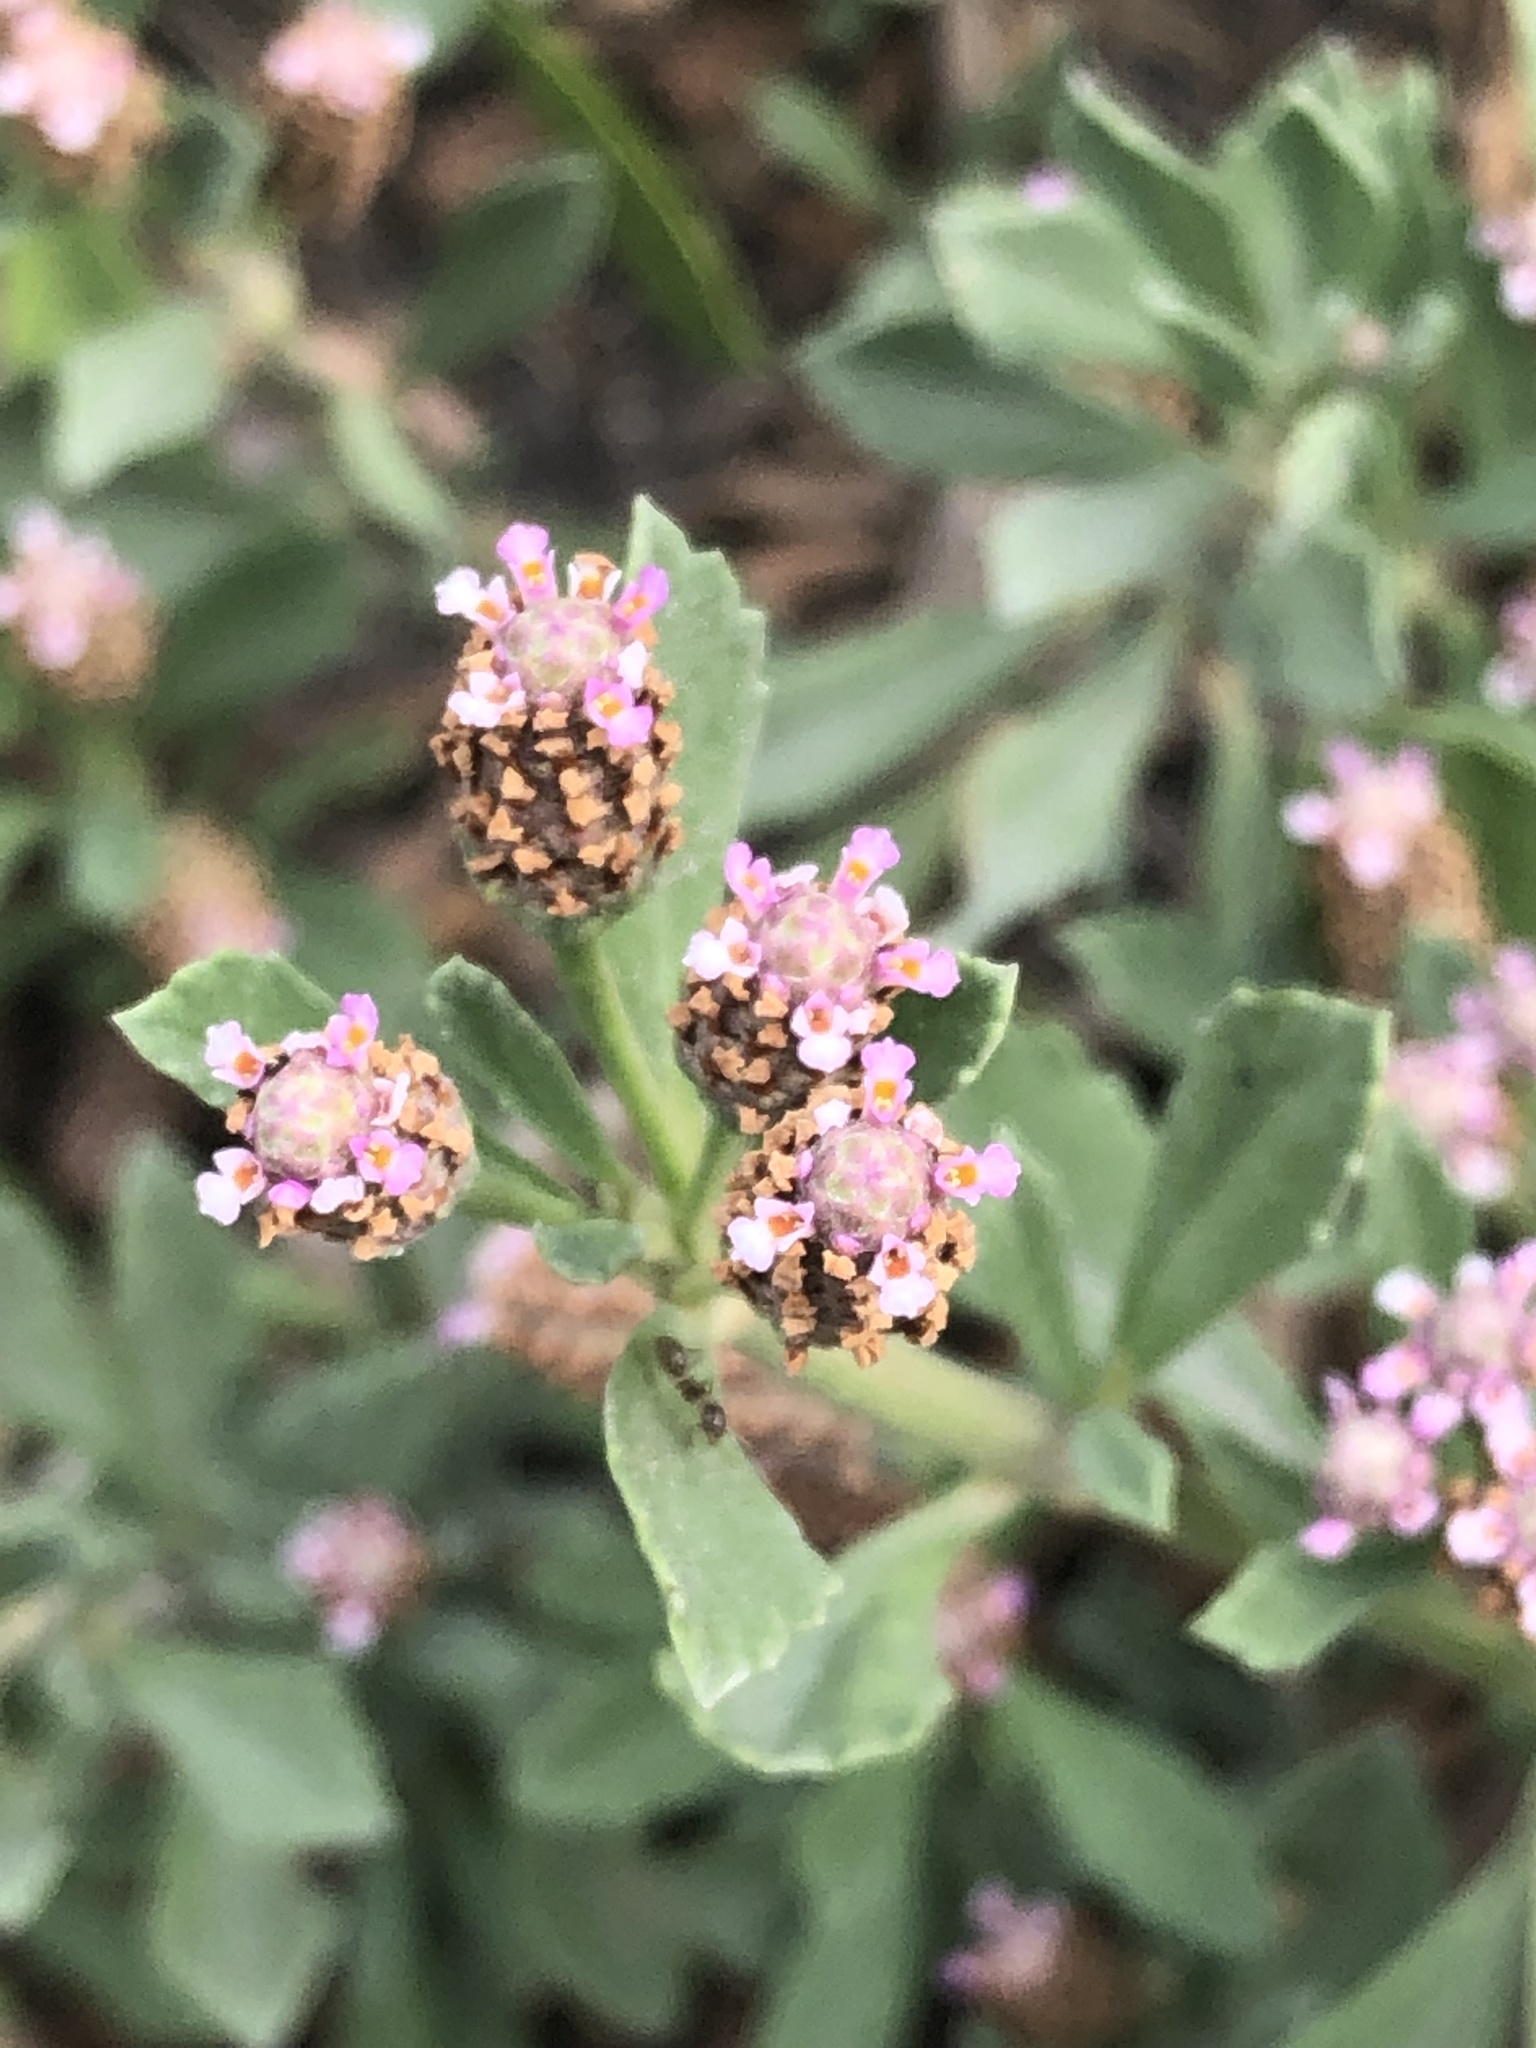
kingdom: Plantae
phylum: Tracheophyta
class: Magnoliopsida
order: Lamiales
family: Verbenaceae
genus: Phyla
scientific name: Phyla nodiflora
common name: Frogfruit
